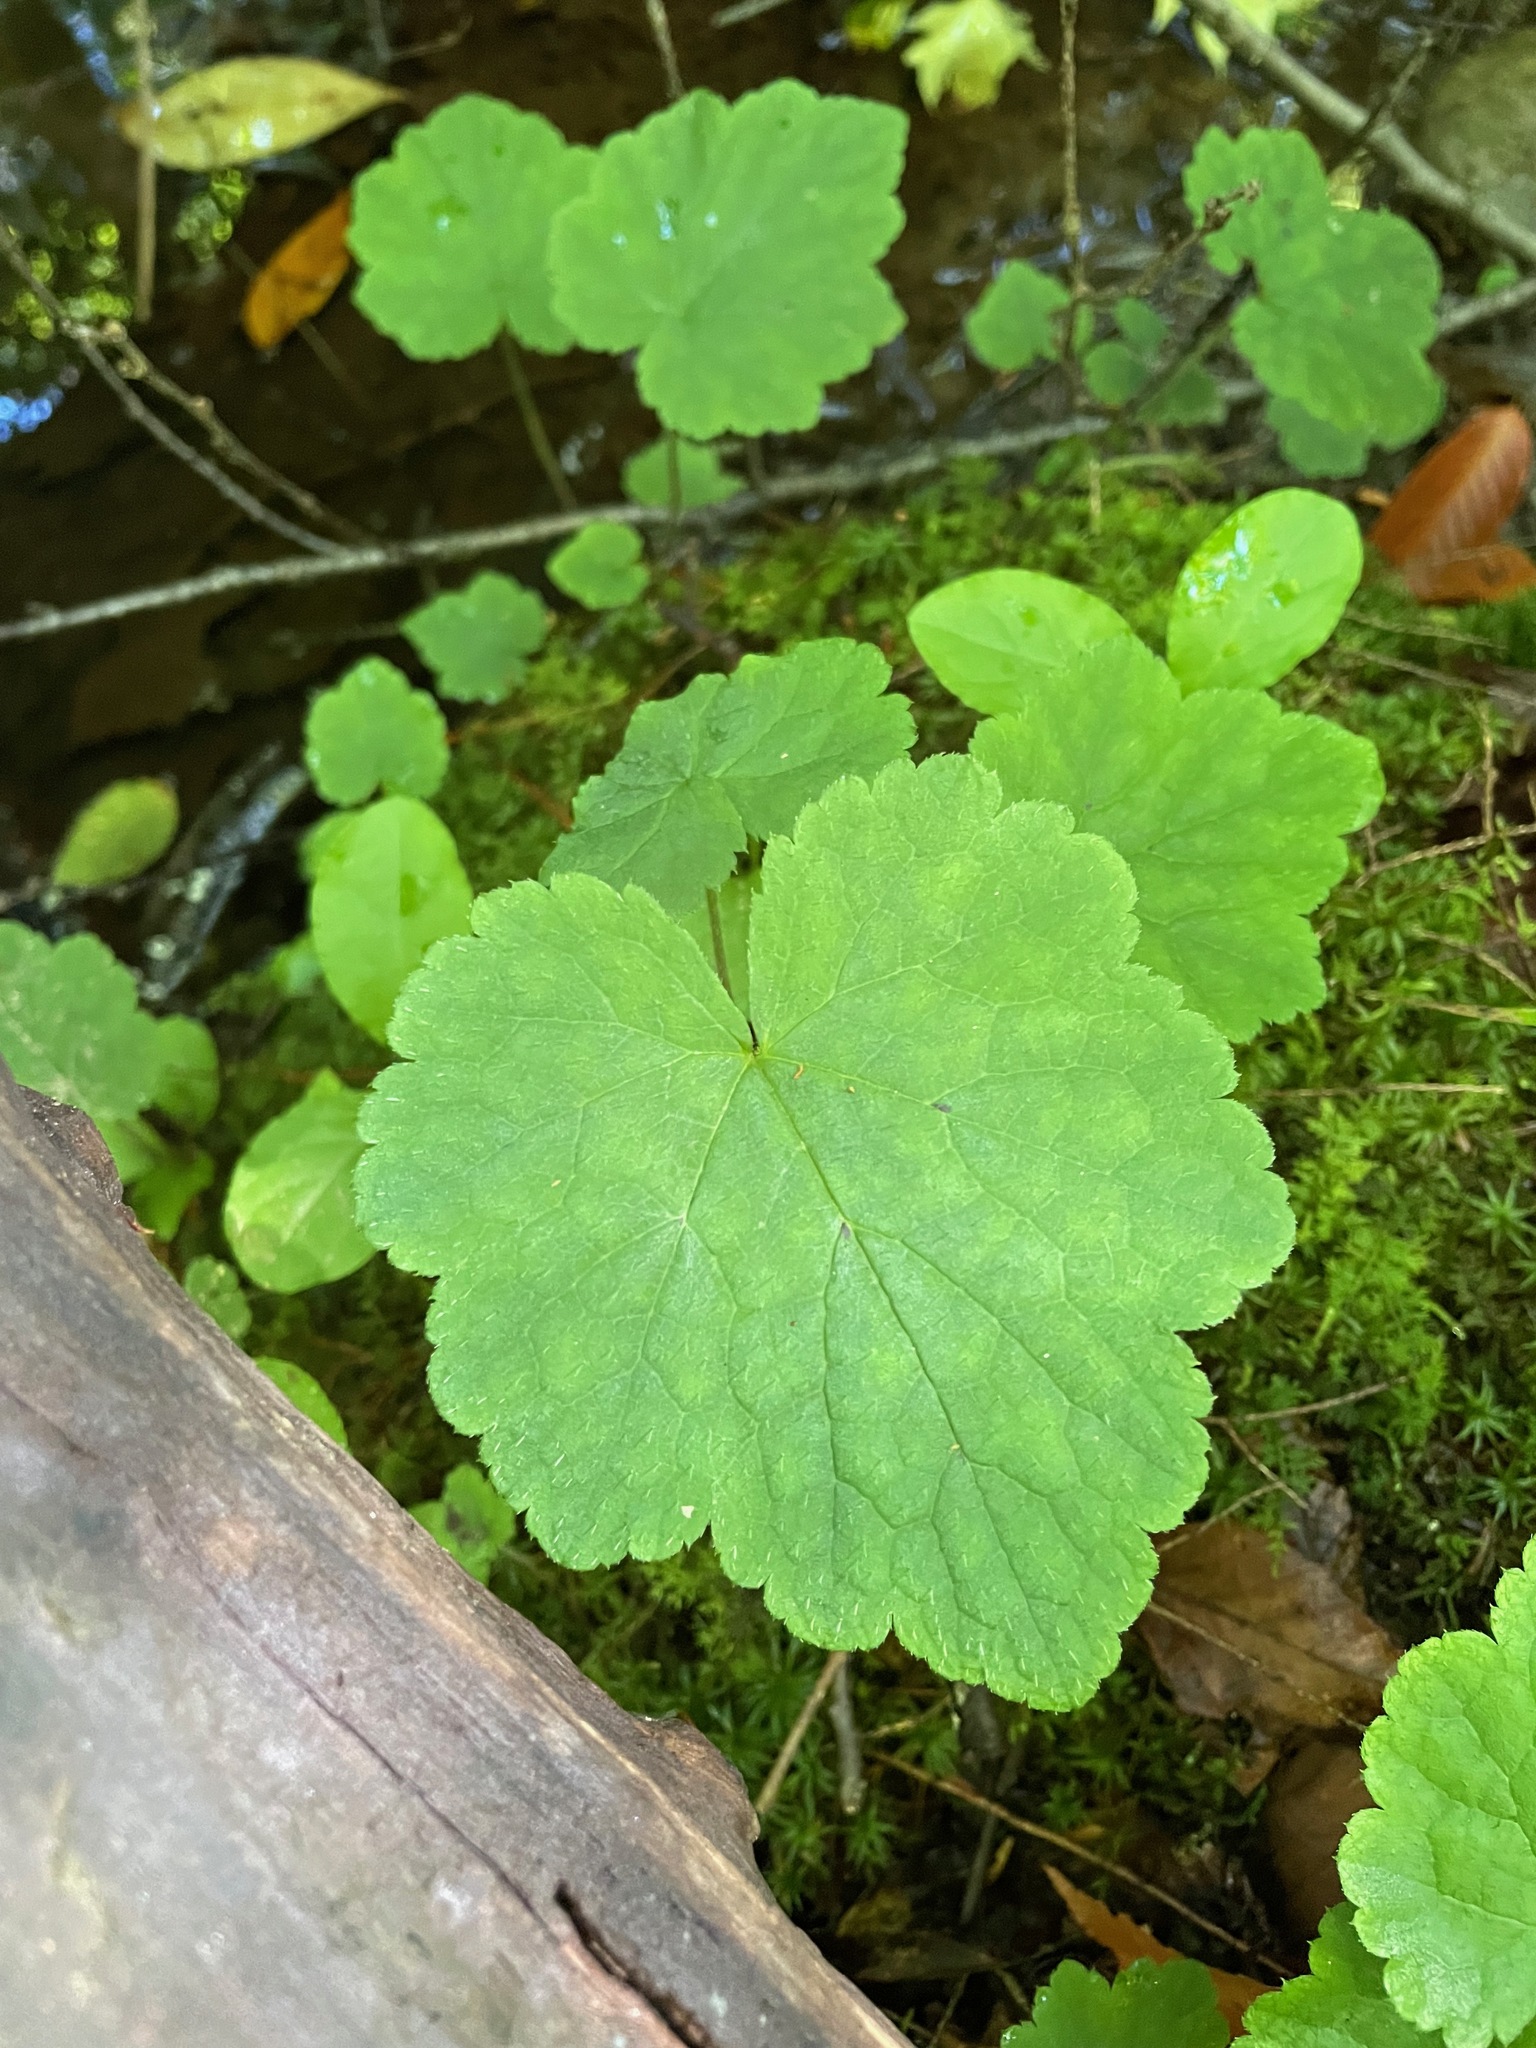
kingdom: Plantae
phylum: Tracheophyta
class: Magnoliopsida
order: Saxifragales
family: Saxifragaceae
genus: Tiarella
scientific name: Tiarella stolonifera
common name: Stoloniferous foamflower
